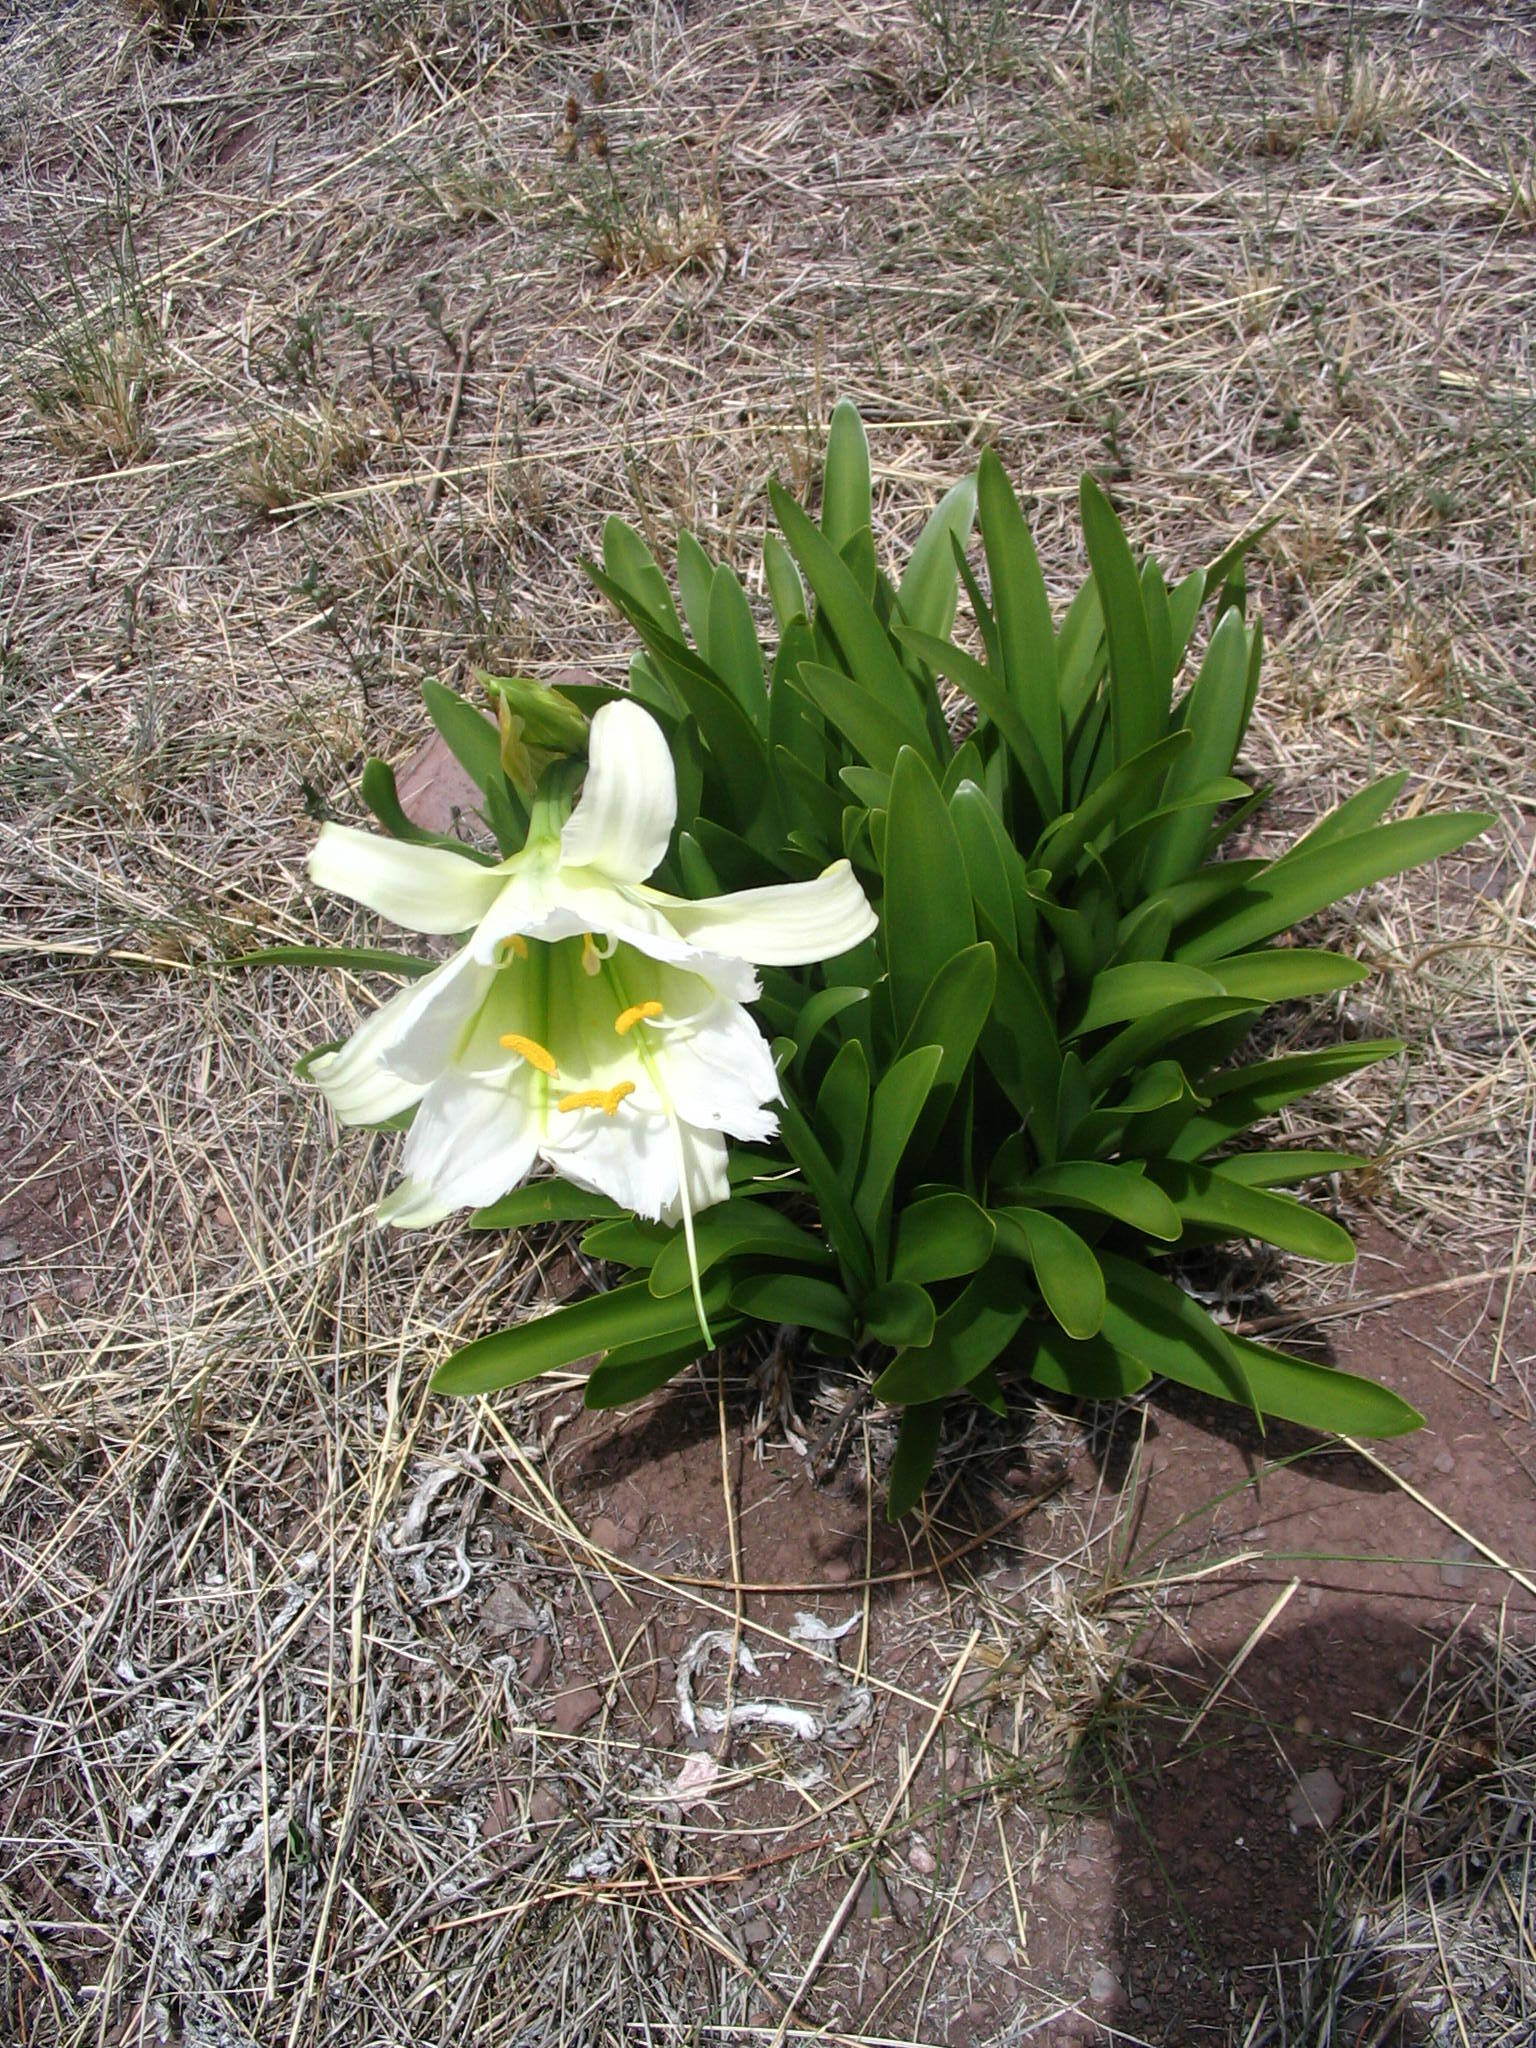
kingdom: Plantae
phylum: Tracheophyta
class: Liliopsida
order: Asparagales
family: Amaryllidaceae
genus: Ismene
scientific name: Ismene hawkesii
